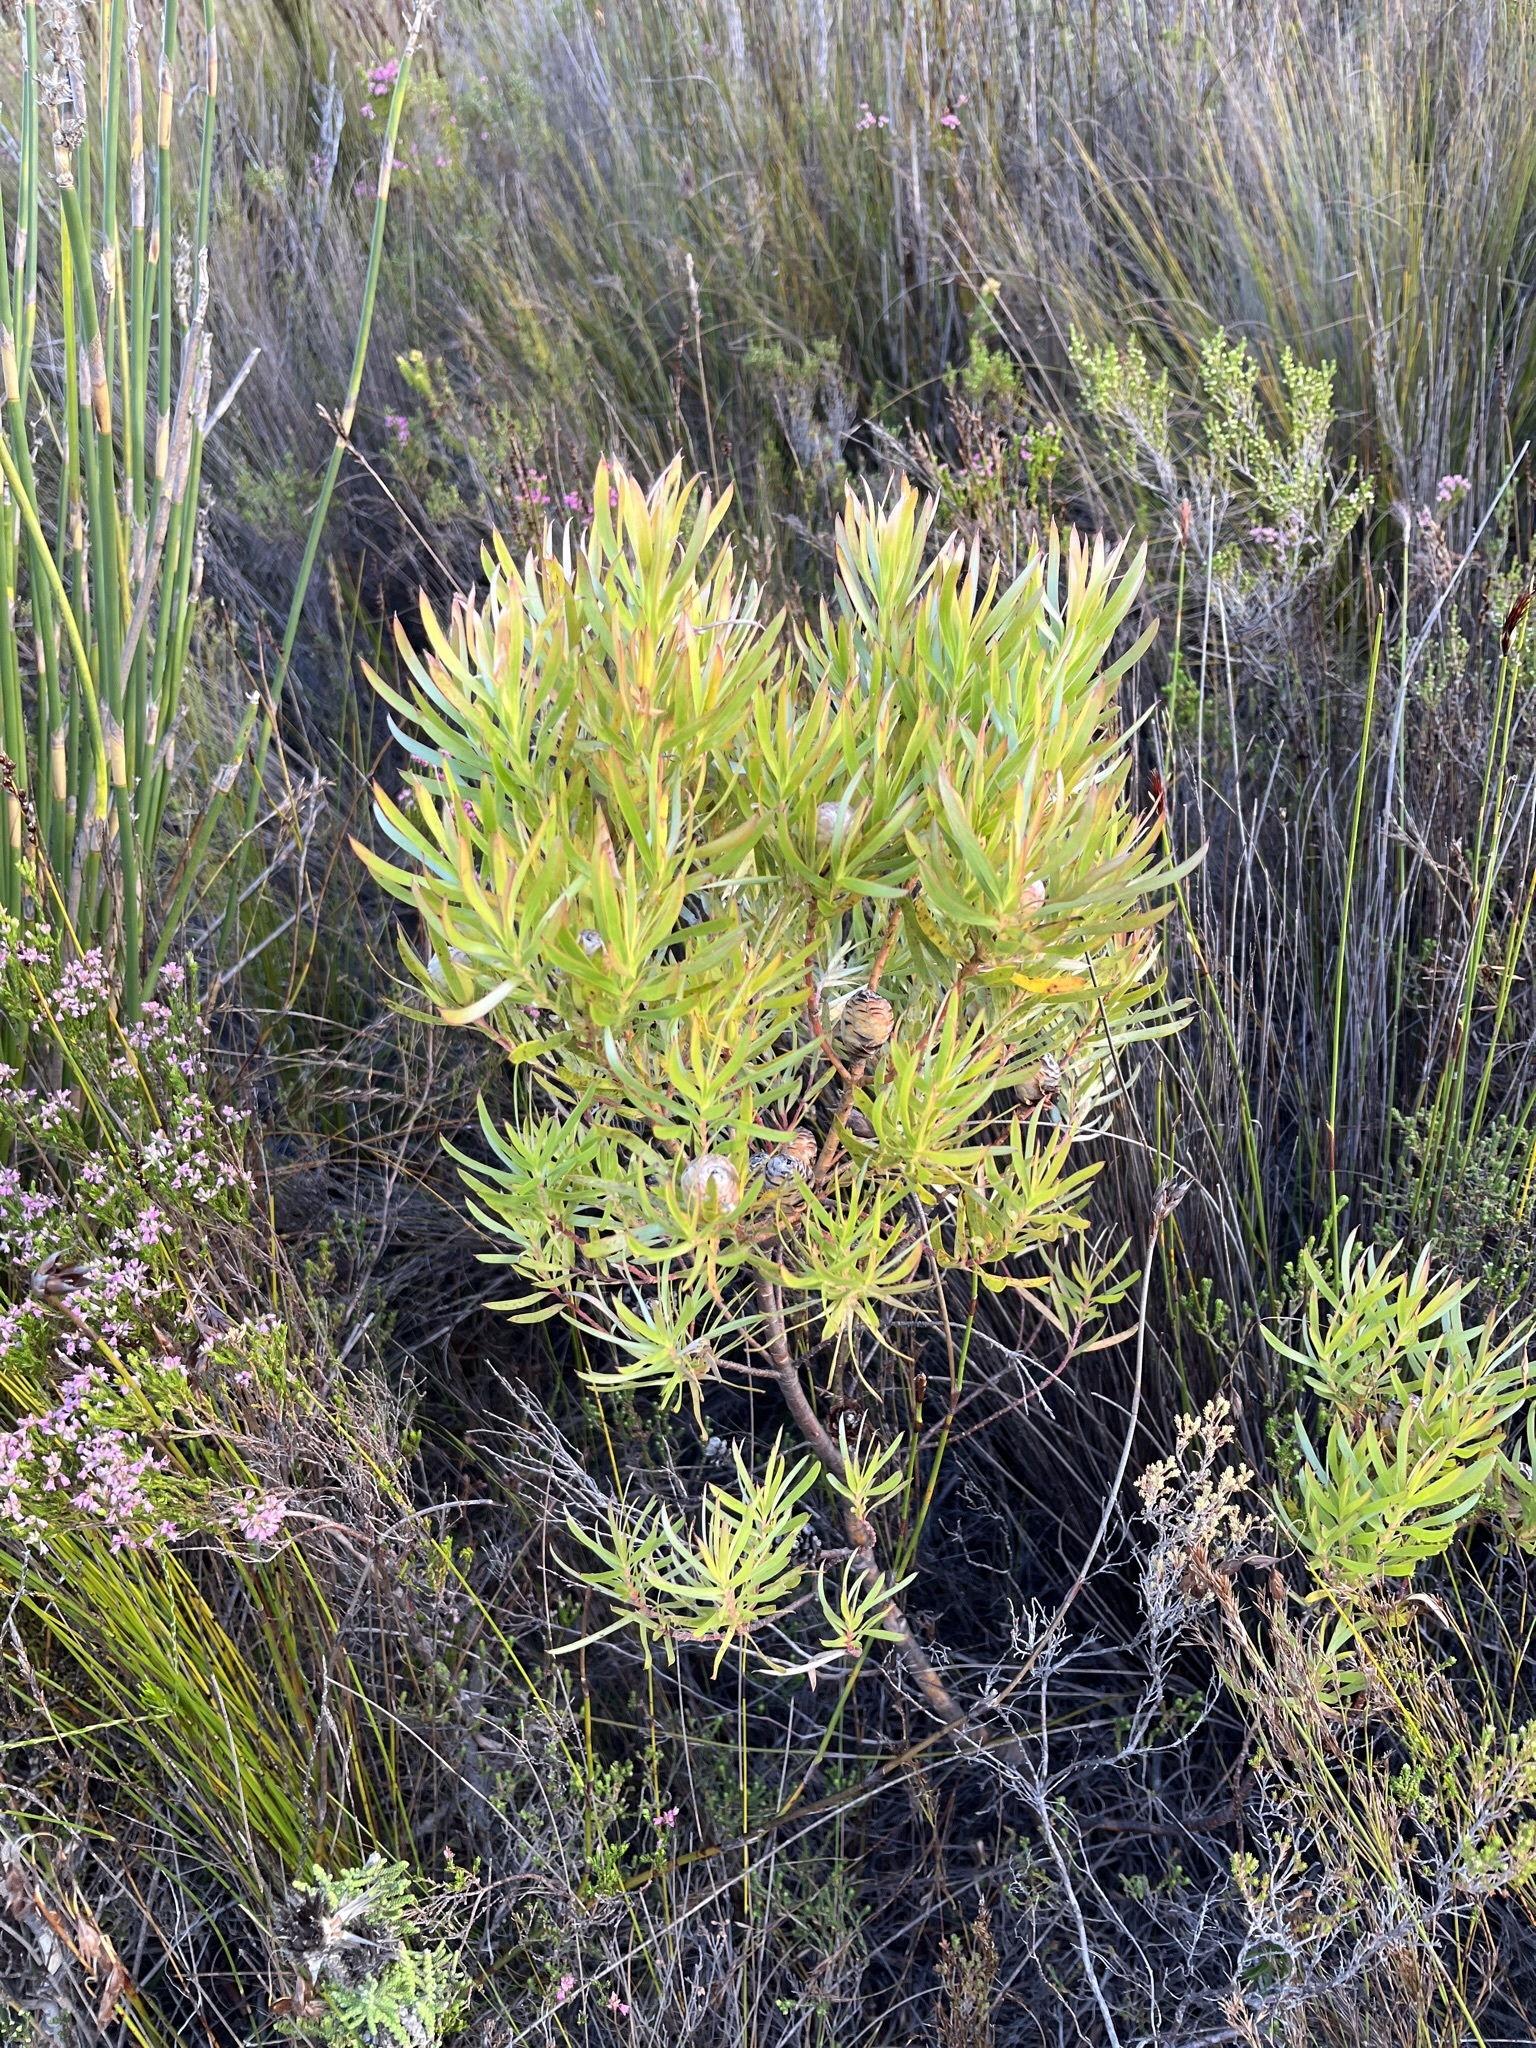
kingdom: Plantae
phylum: Tracheophyta
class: Magnoliopsida
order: Proteales
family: Proteaceae
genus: Leucadendron
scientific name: Leucadendron xanthoconus
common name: Sickle-leaf conebush
